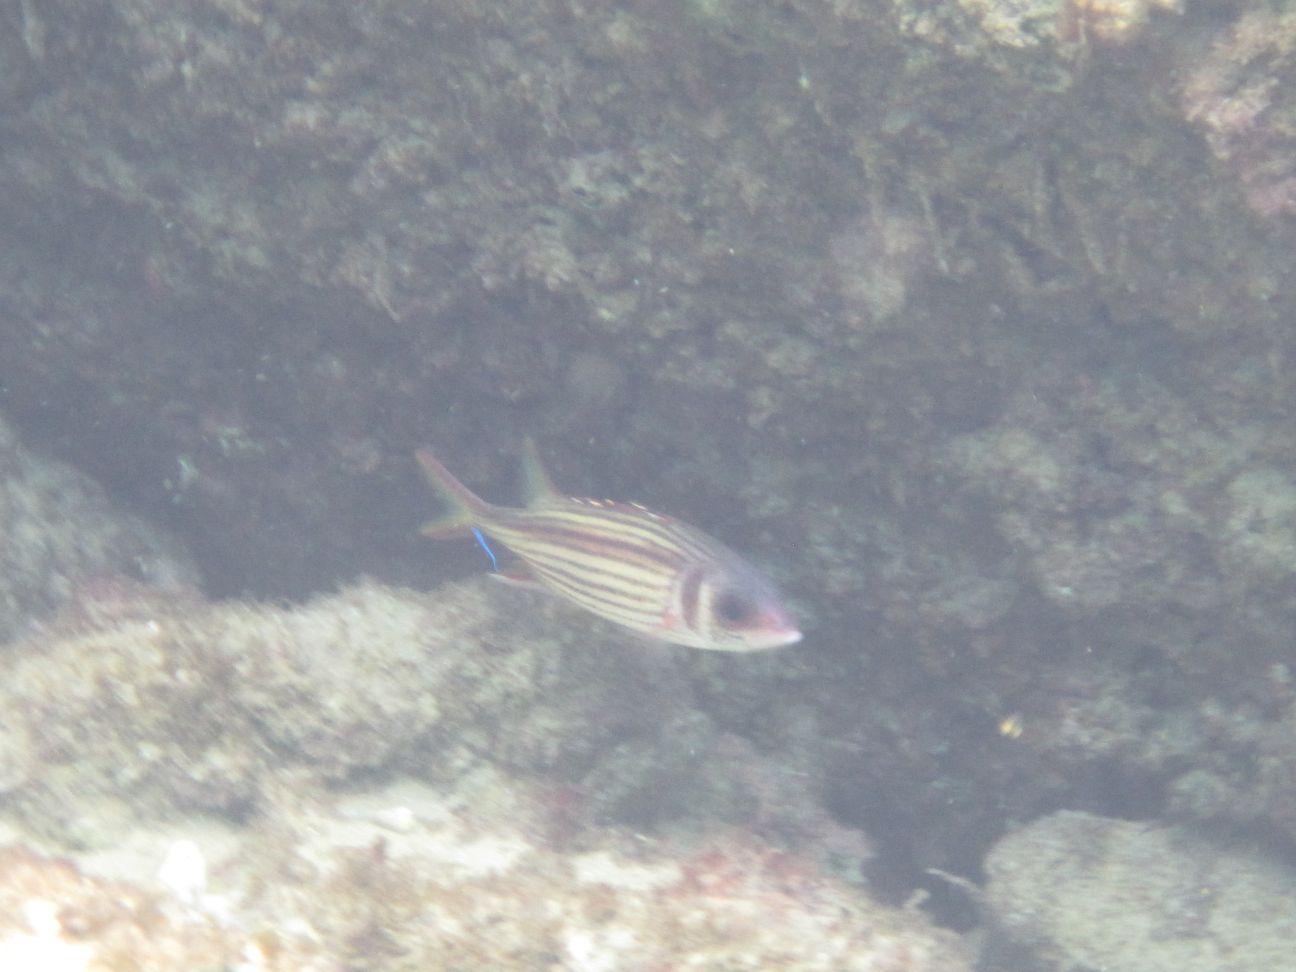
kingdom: Animalia
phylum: Chordata
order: Beryciformes
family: Holocentridae
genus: Neoniphon
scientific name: Neoniphon sammara
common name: Sammara squirrelfish
